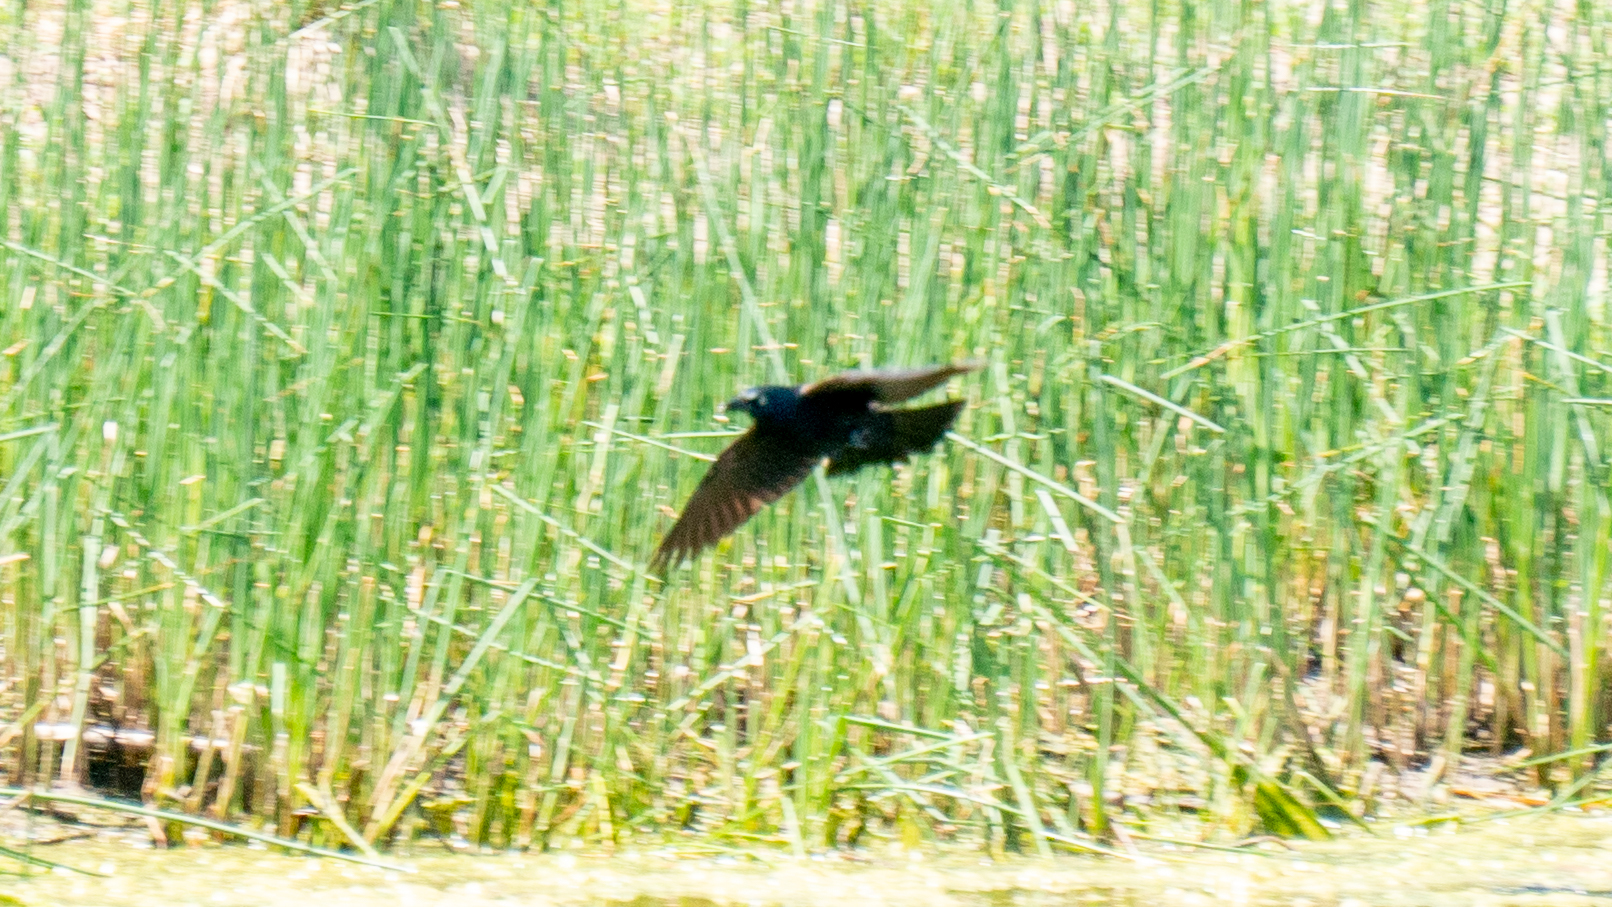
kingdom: Animalia
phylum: Chordata
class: Aves
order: Passeriformes
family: Icteridae
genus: Quiscalus
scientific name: Quiscalus quiscula
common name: Common grackle
